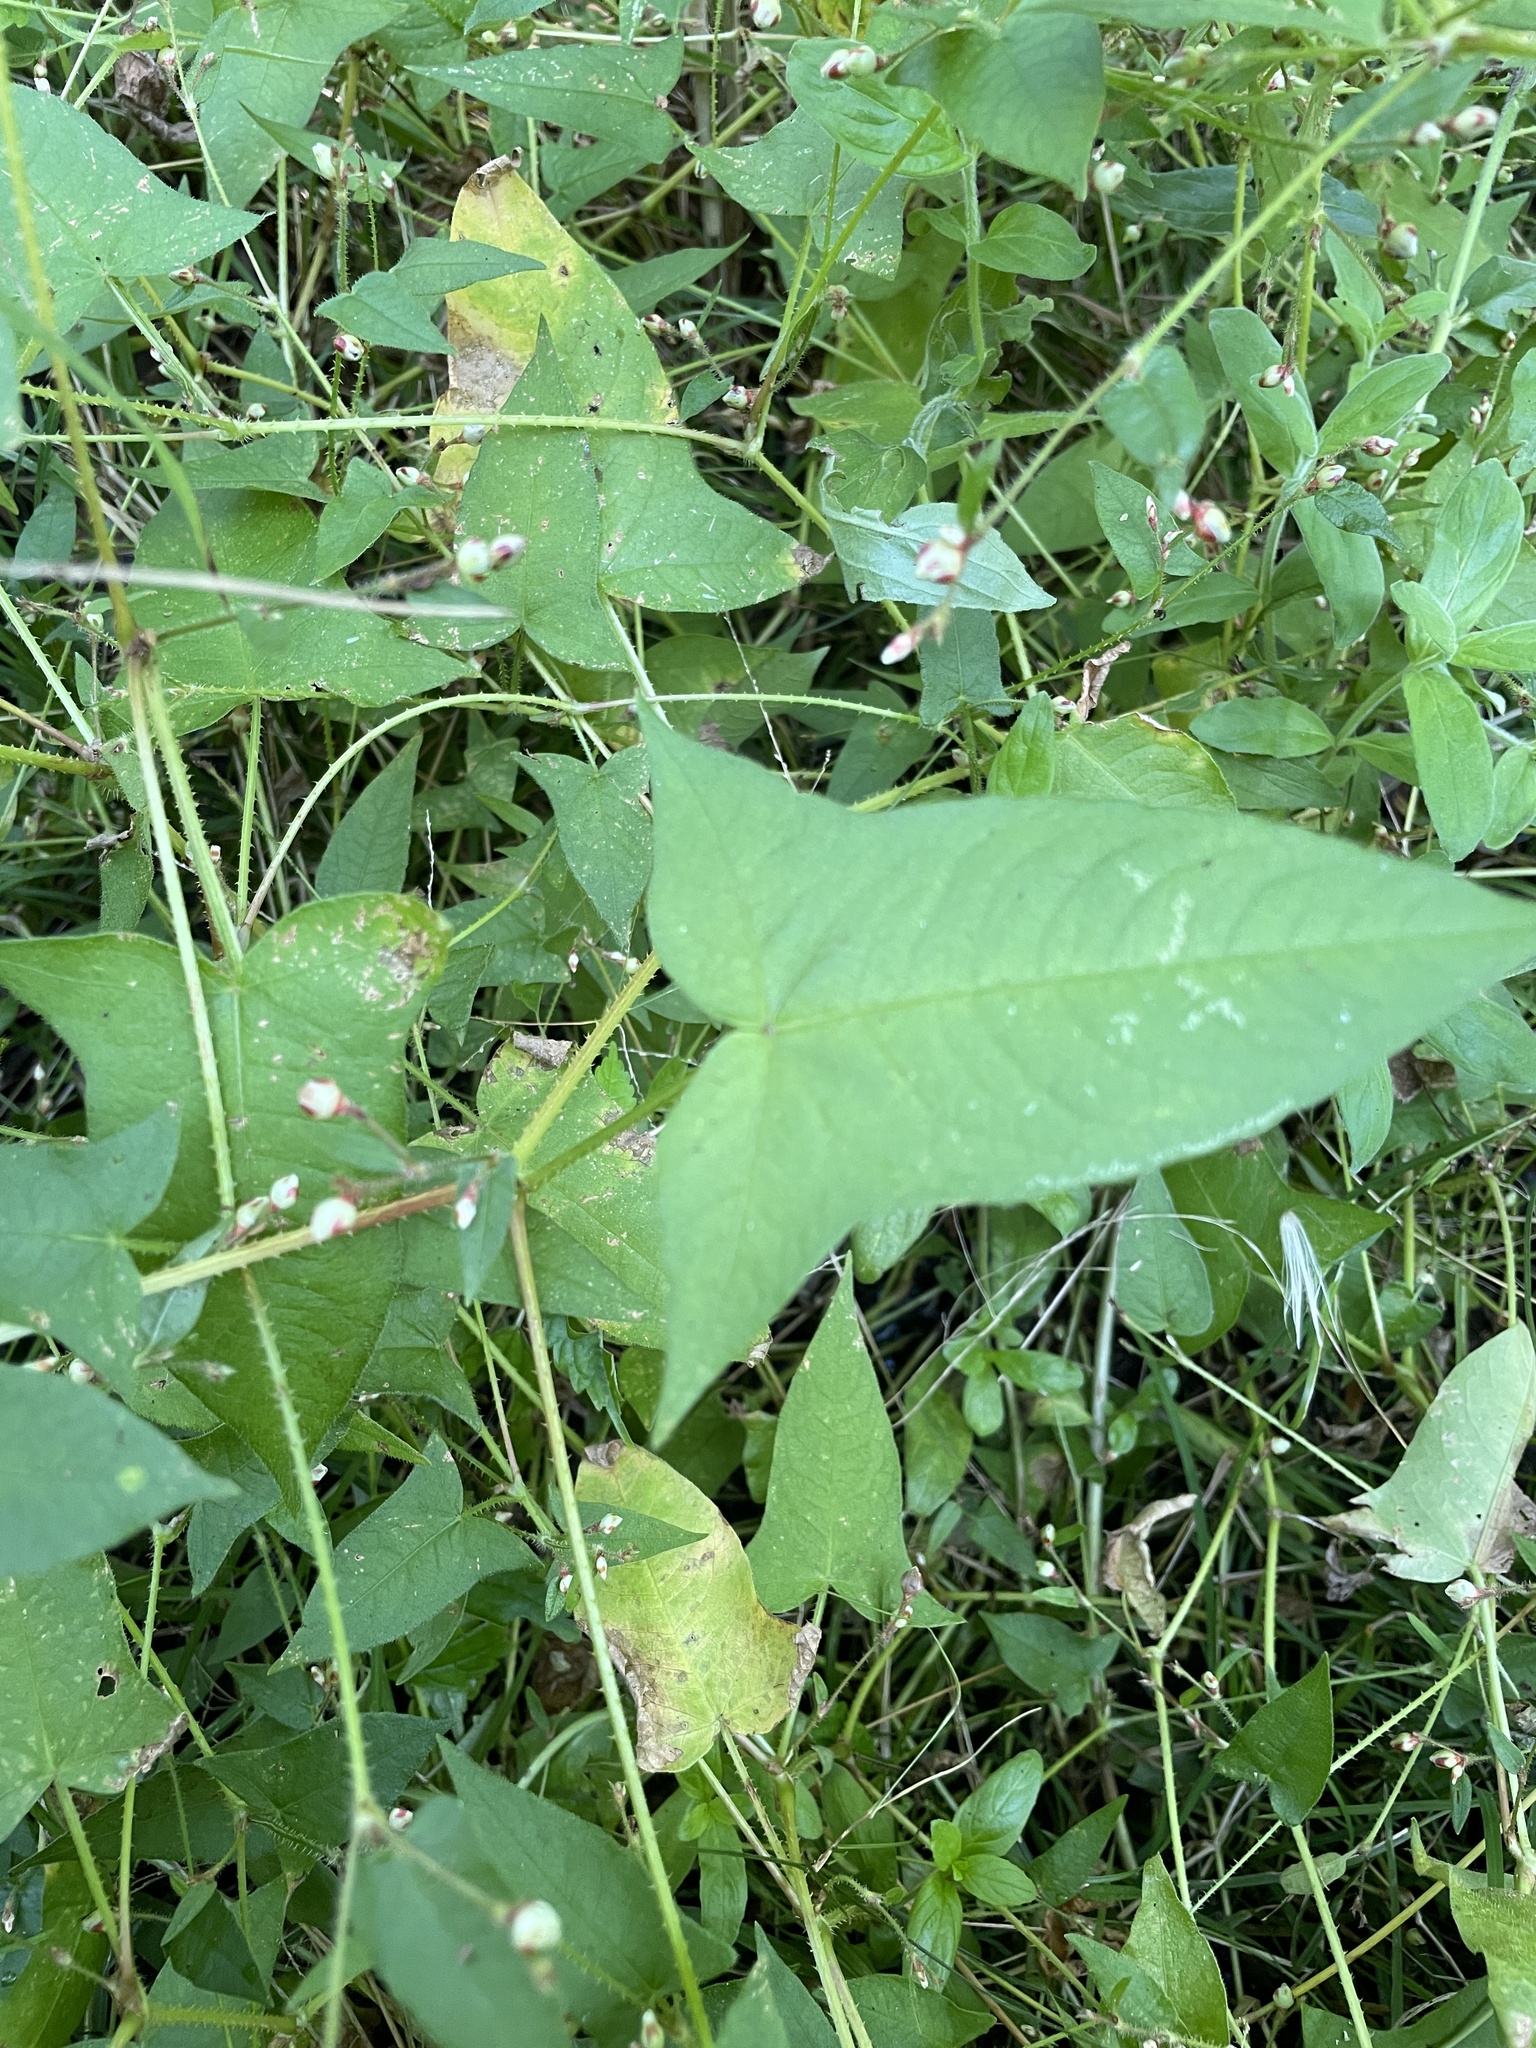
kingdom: Plantae
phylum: Tracheophyta
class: Magnoliopsida
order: Caryophyllales
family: Polygonaceae
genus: Persicaria
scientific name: Persicaria arifolia
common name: Halberd-leaved tear-thumb
